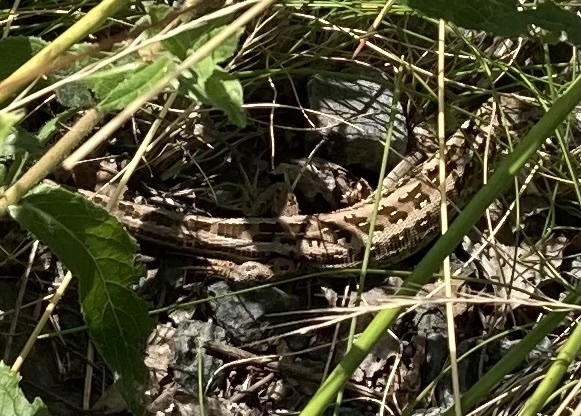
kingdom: Animalia
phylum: Chordata
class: Squamata
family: Lacertidae
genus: Lacerta
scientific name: Lacerta agilis
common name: Sand lizard
